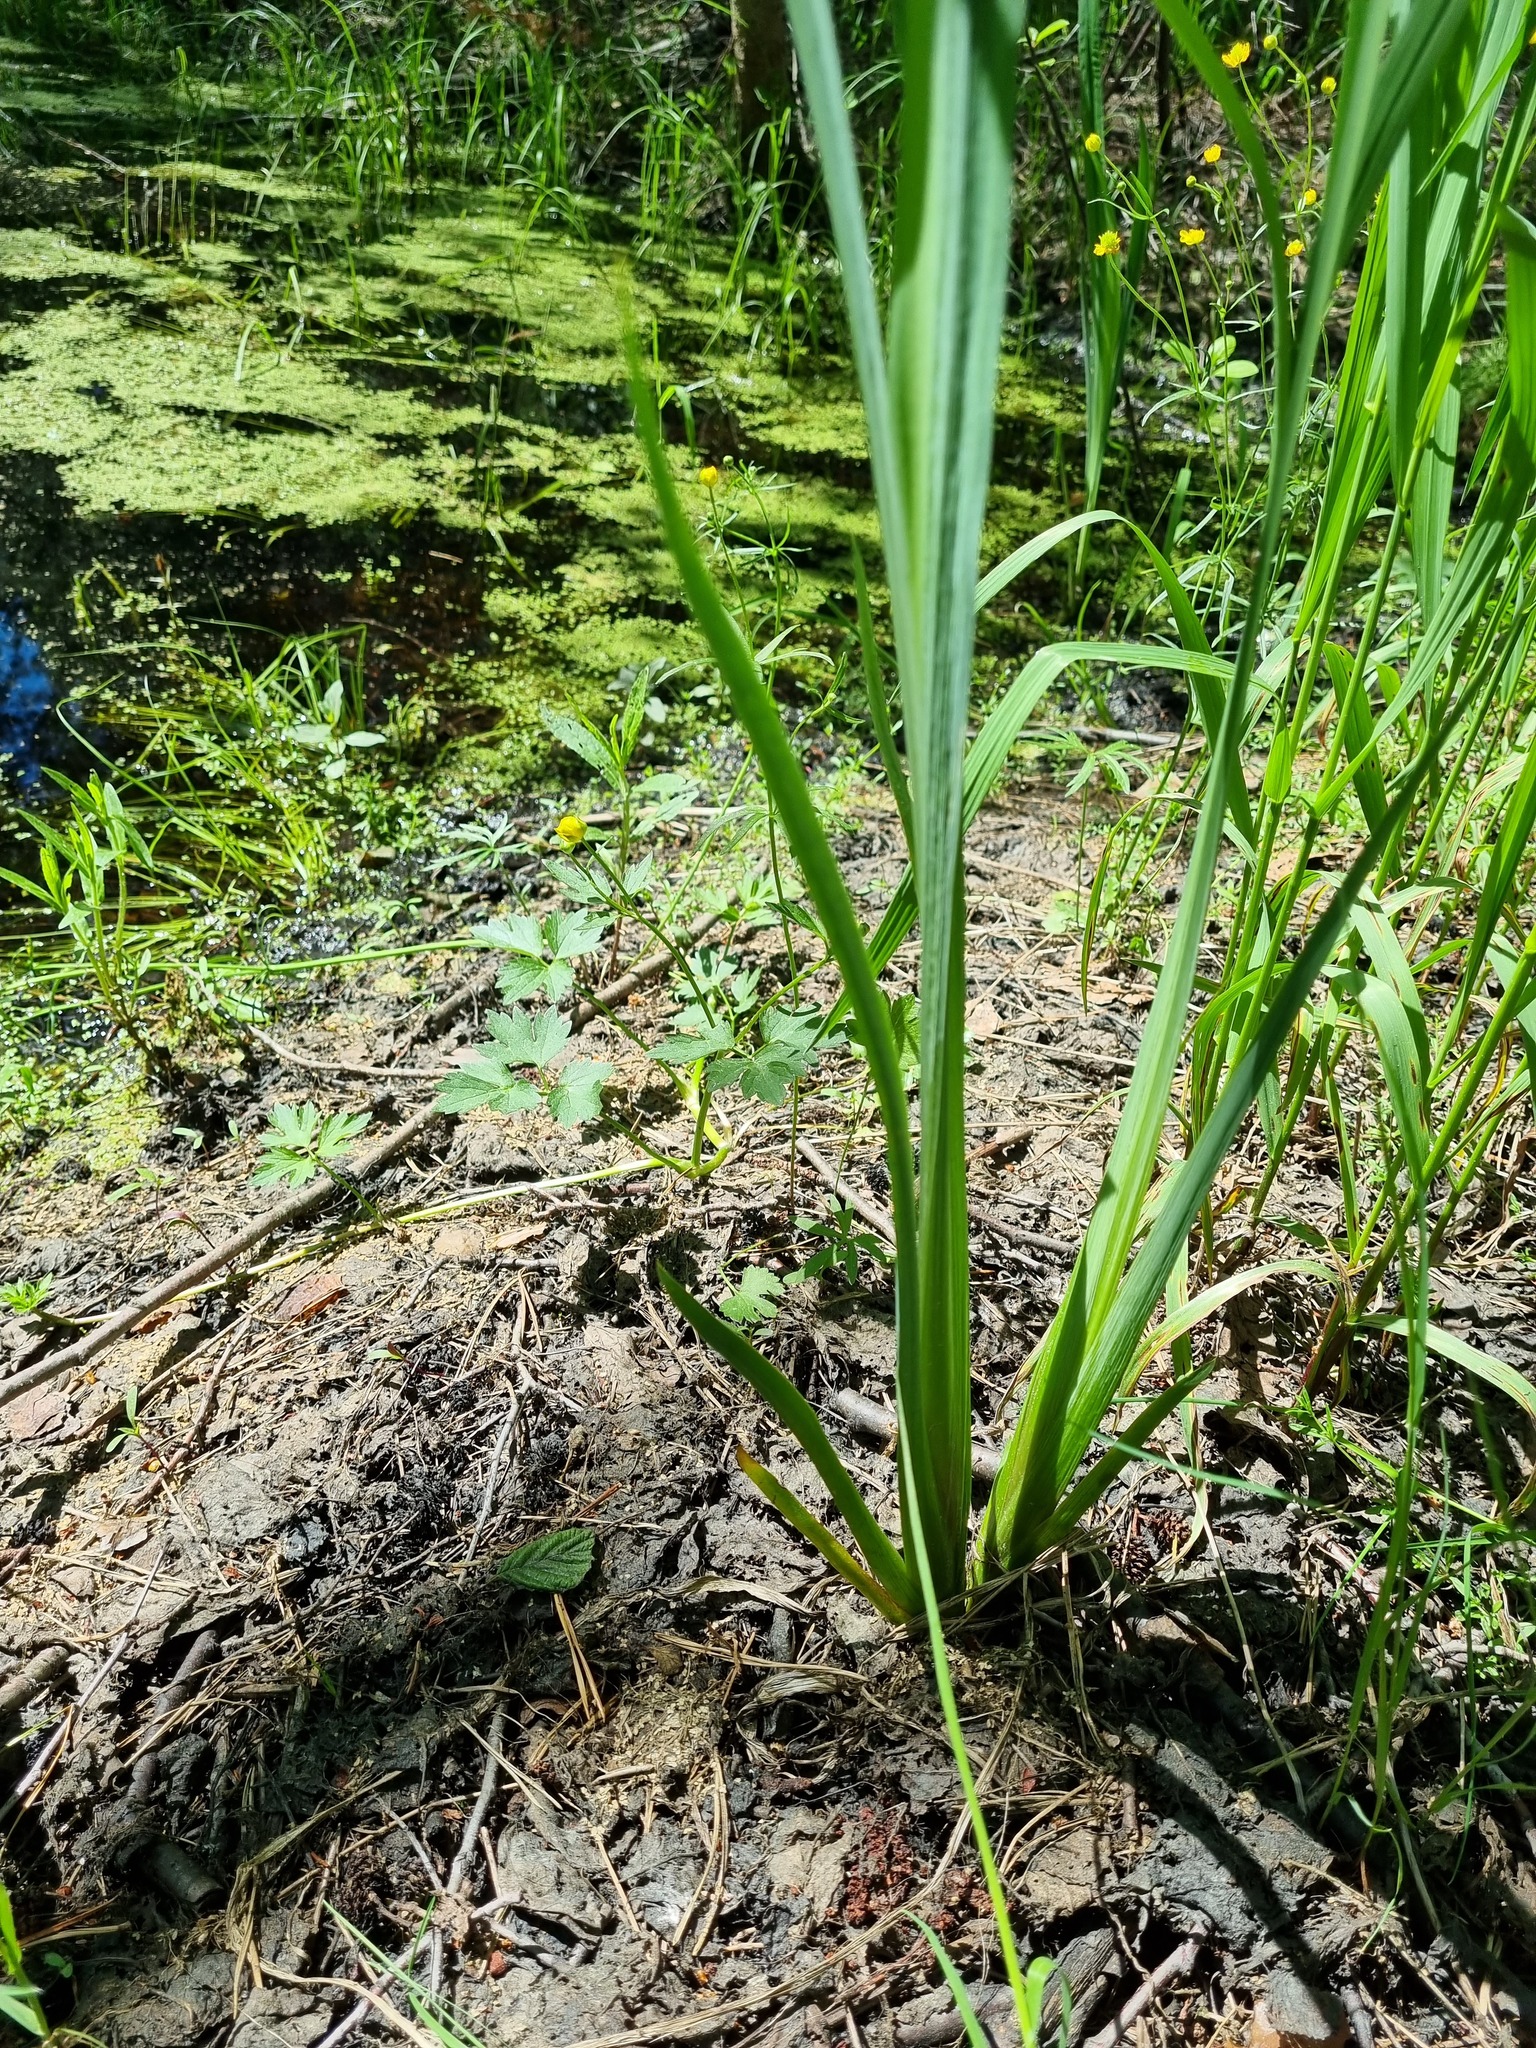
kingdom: Plantae
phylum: Tracheophyta
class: Liliopsida
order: Asparagales
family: Iridaceae
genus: Iris
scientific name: Iris pseudacorus
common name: Yellow flag
